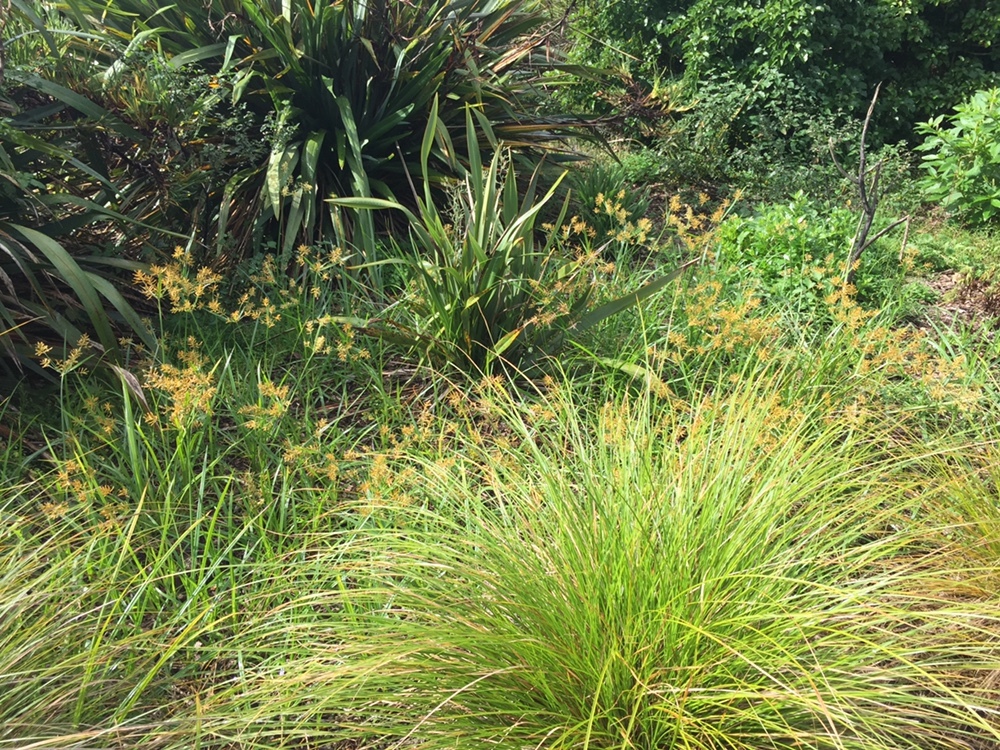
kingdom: Plantae
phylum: Tracheophyta
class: Liliopsida
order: Poales
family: Cyperaceae
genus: Cyperus
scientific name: Cyperus esculentus
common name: Yellow nutsedge
